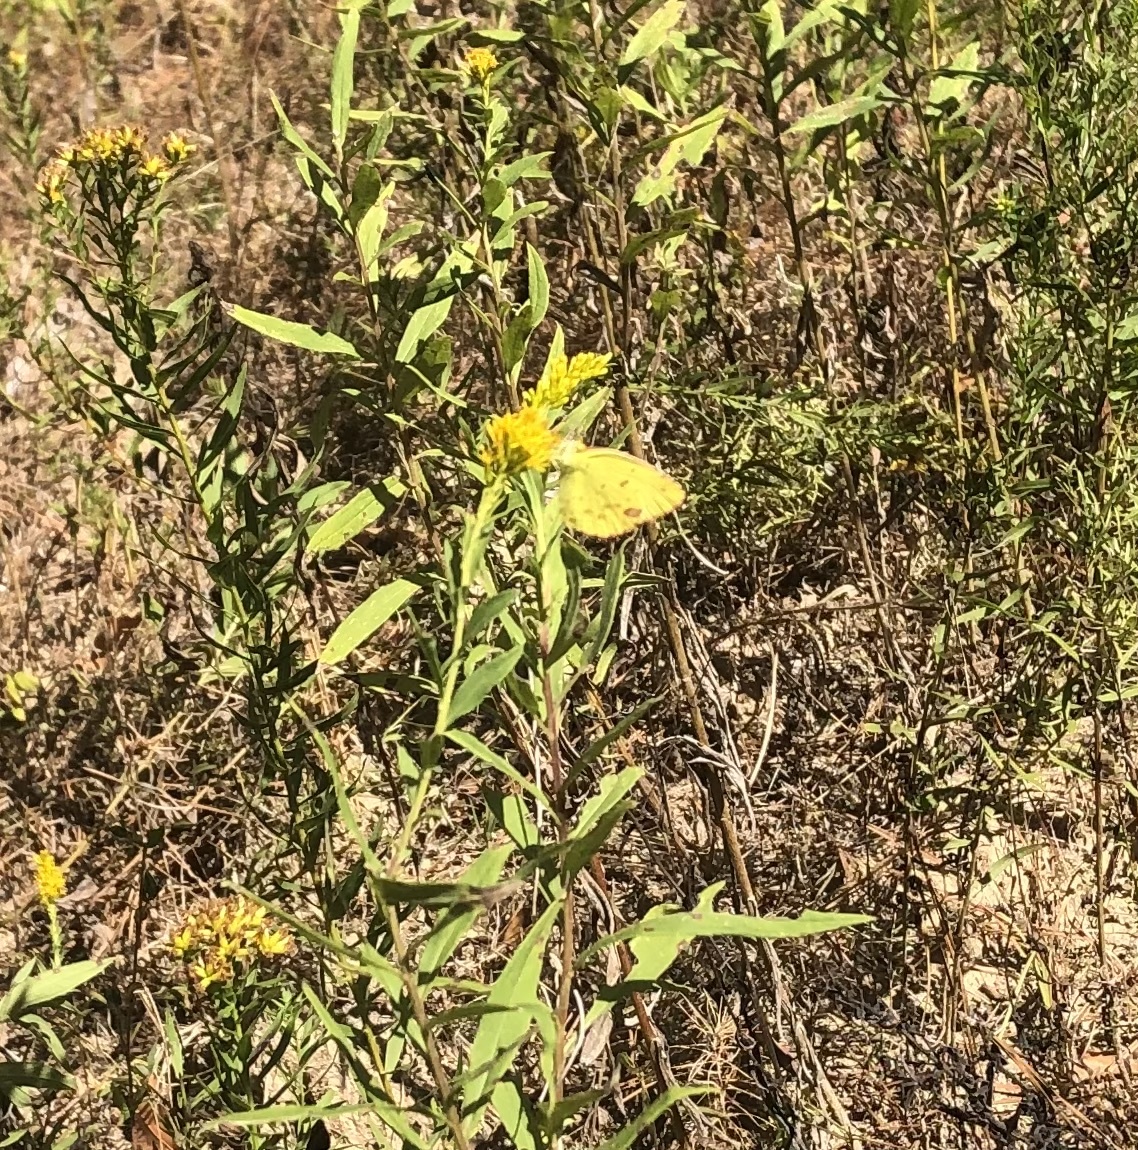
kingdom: Animalia
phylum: Arthropoda
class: Insecta
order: Lepidoptera
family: Pieridae
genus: Pyrisitia
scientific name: Pyrisitia lisa
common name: Little yellow
